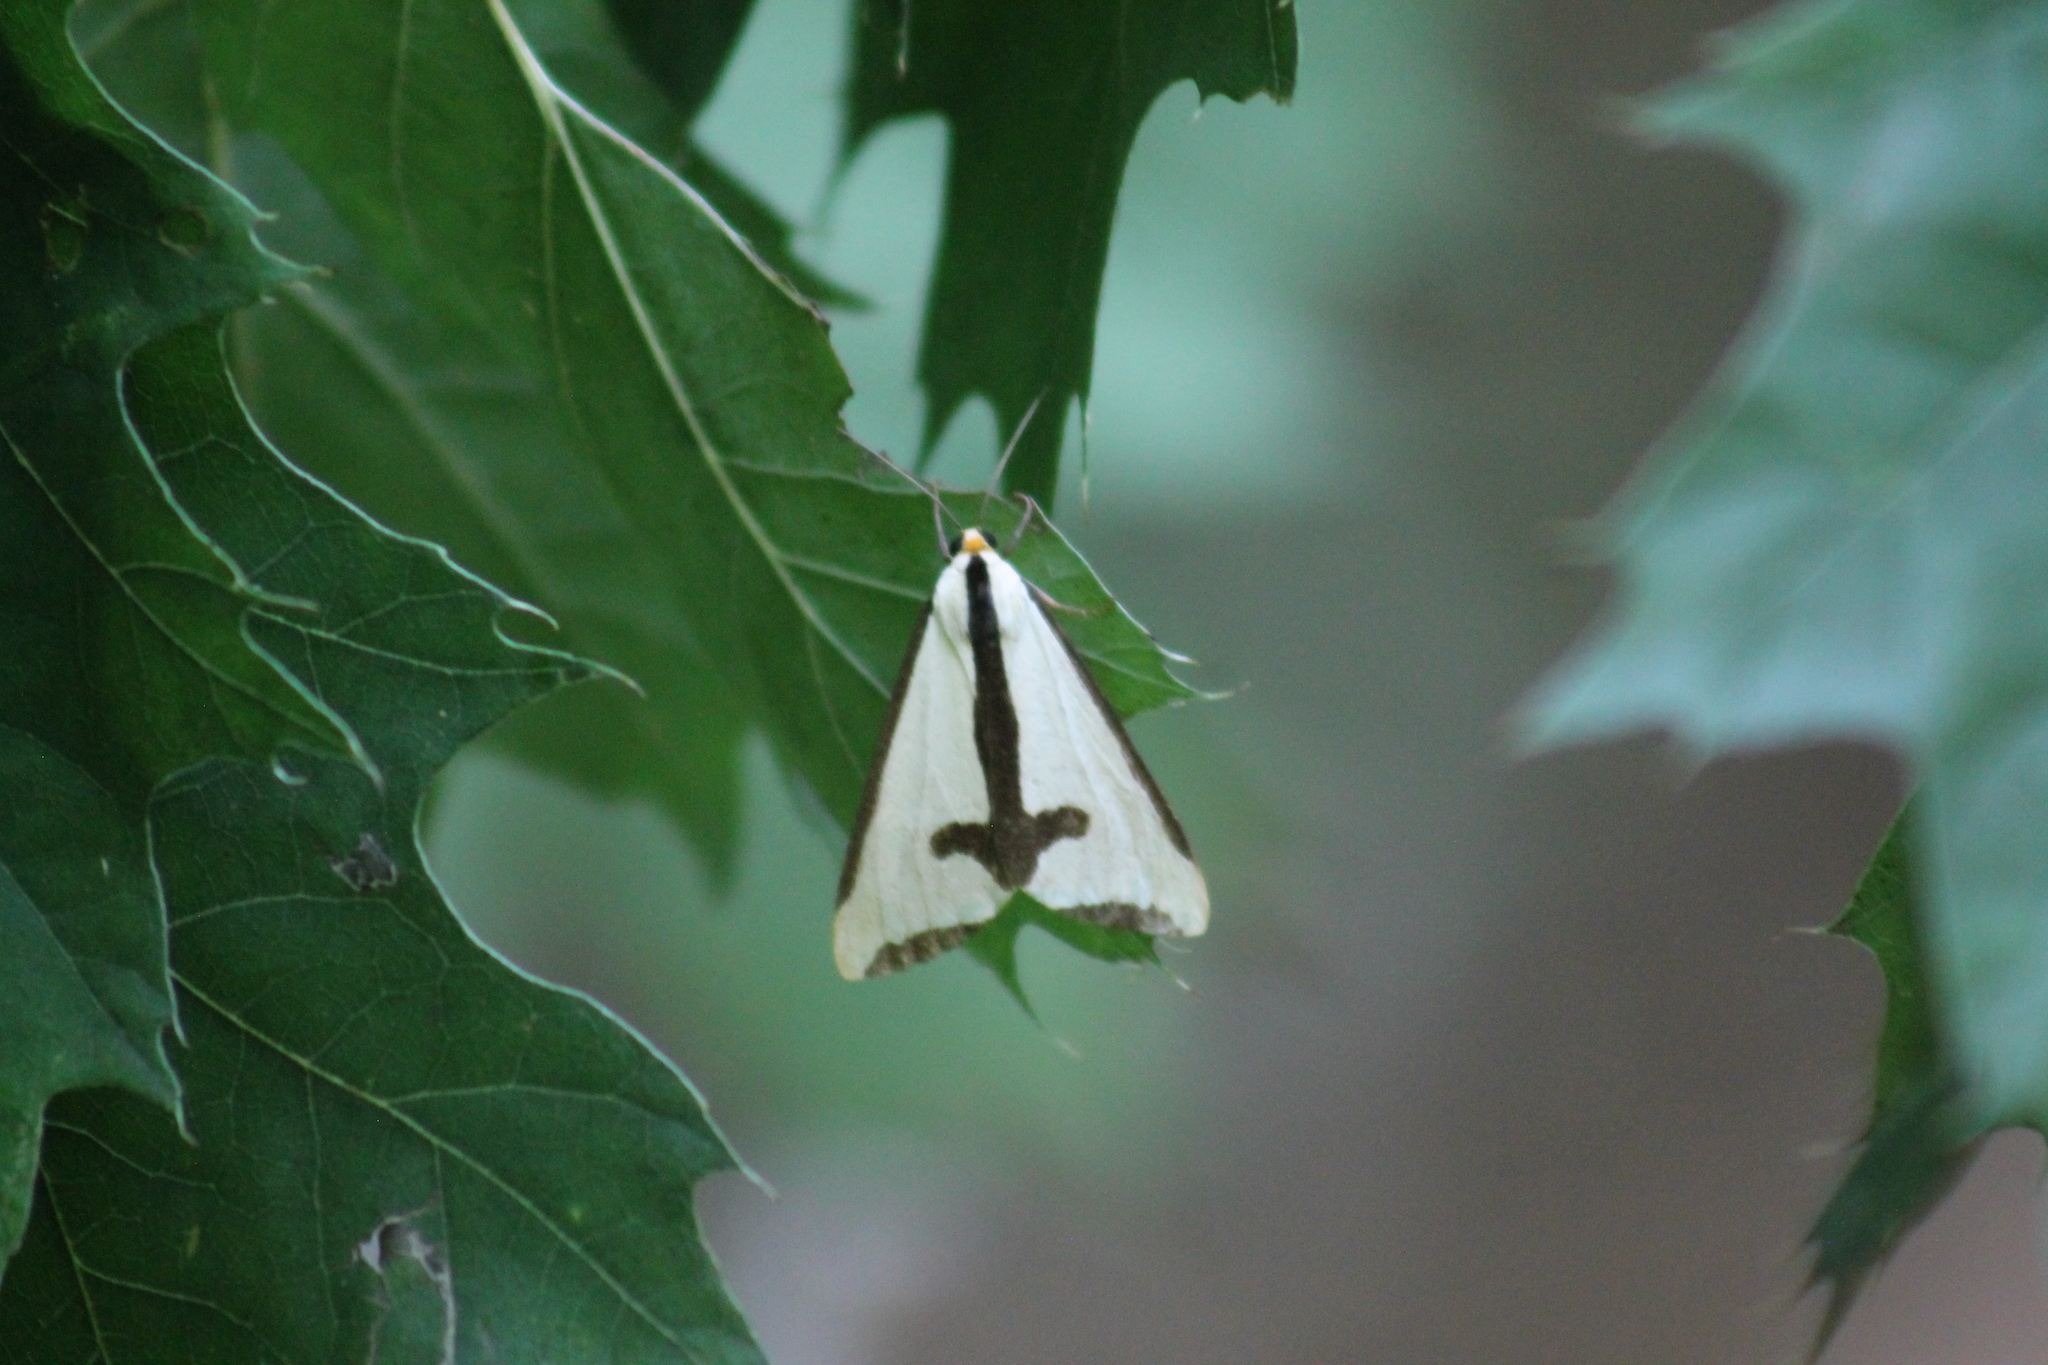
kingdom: Animalia
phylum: Arthropoda
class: Insecta
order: Lepidoptera
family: Erebidae
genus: Haploa
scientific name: Haploa clymene
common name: Clymene moth
